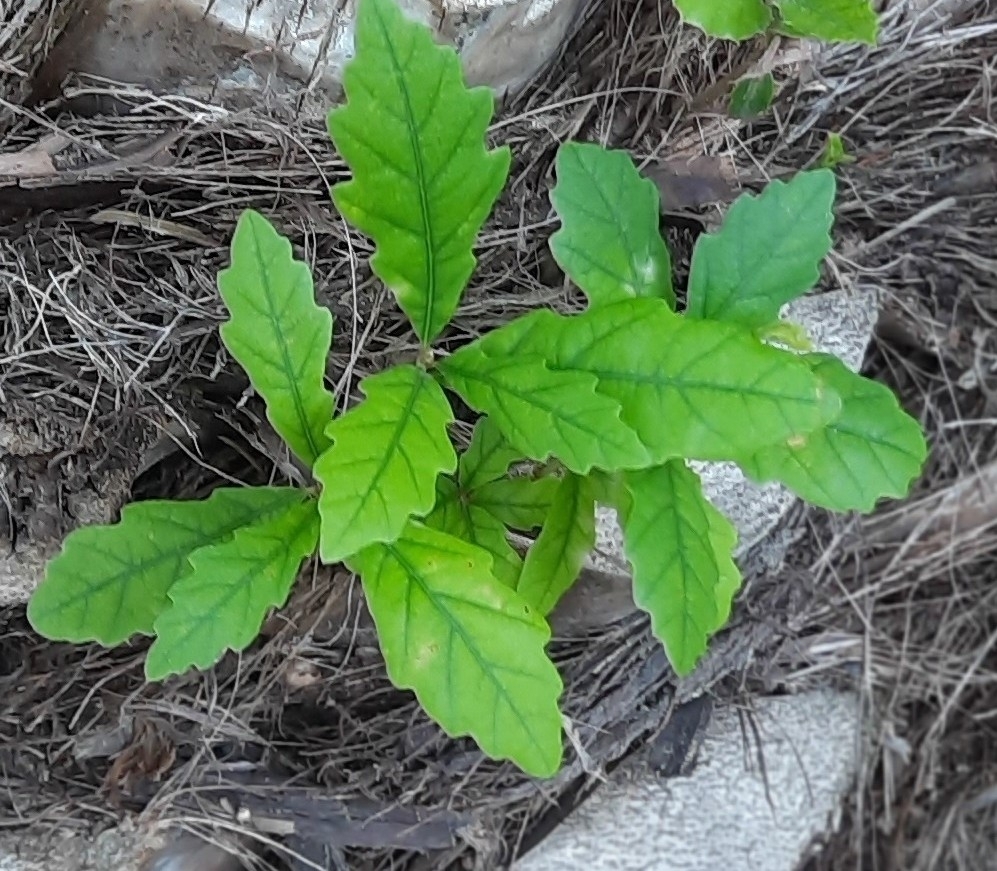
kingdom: Plantae
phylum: Tracheophyta
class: Magnoliopsida
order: Fagales
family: Fagaceae
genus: Quercus
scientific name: Quercus petraea
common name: Sessile oak
